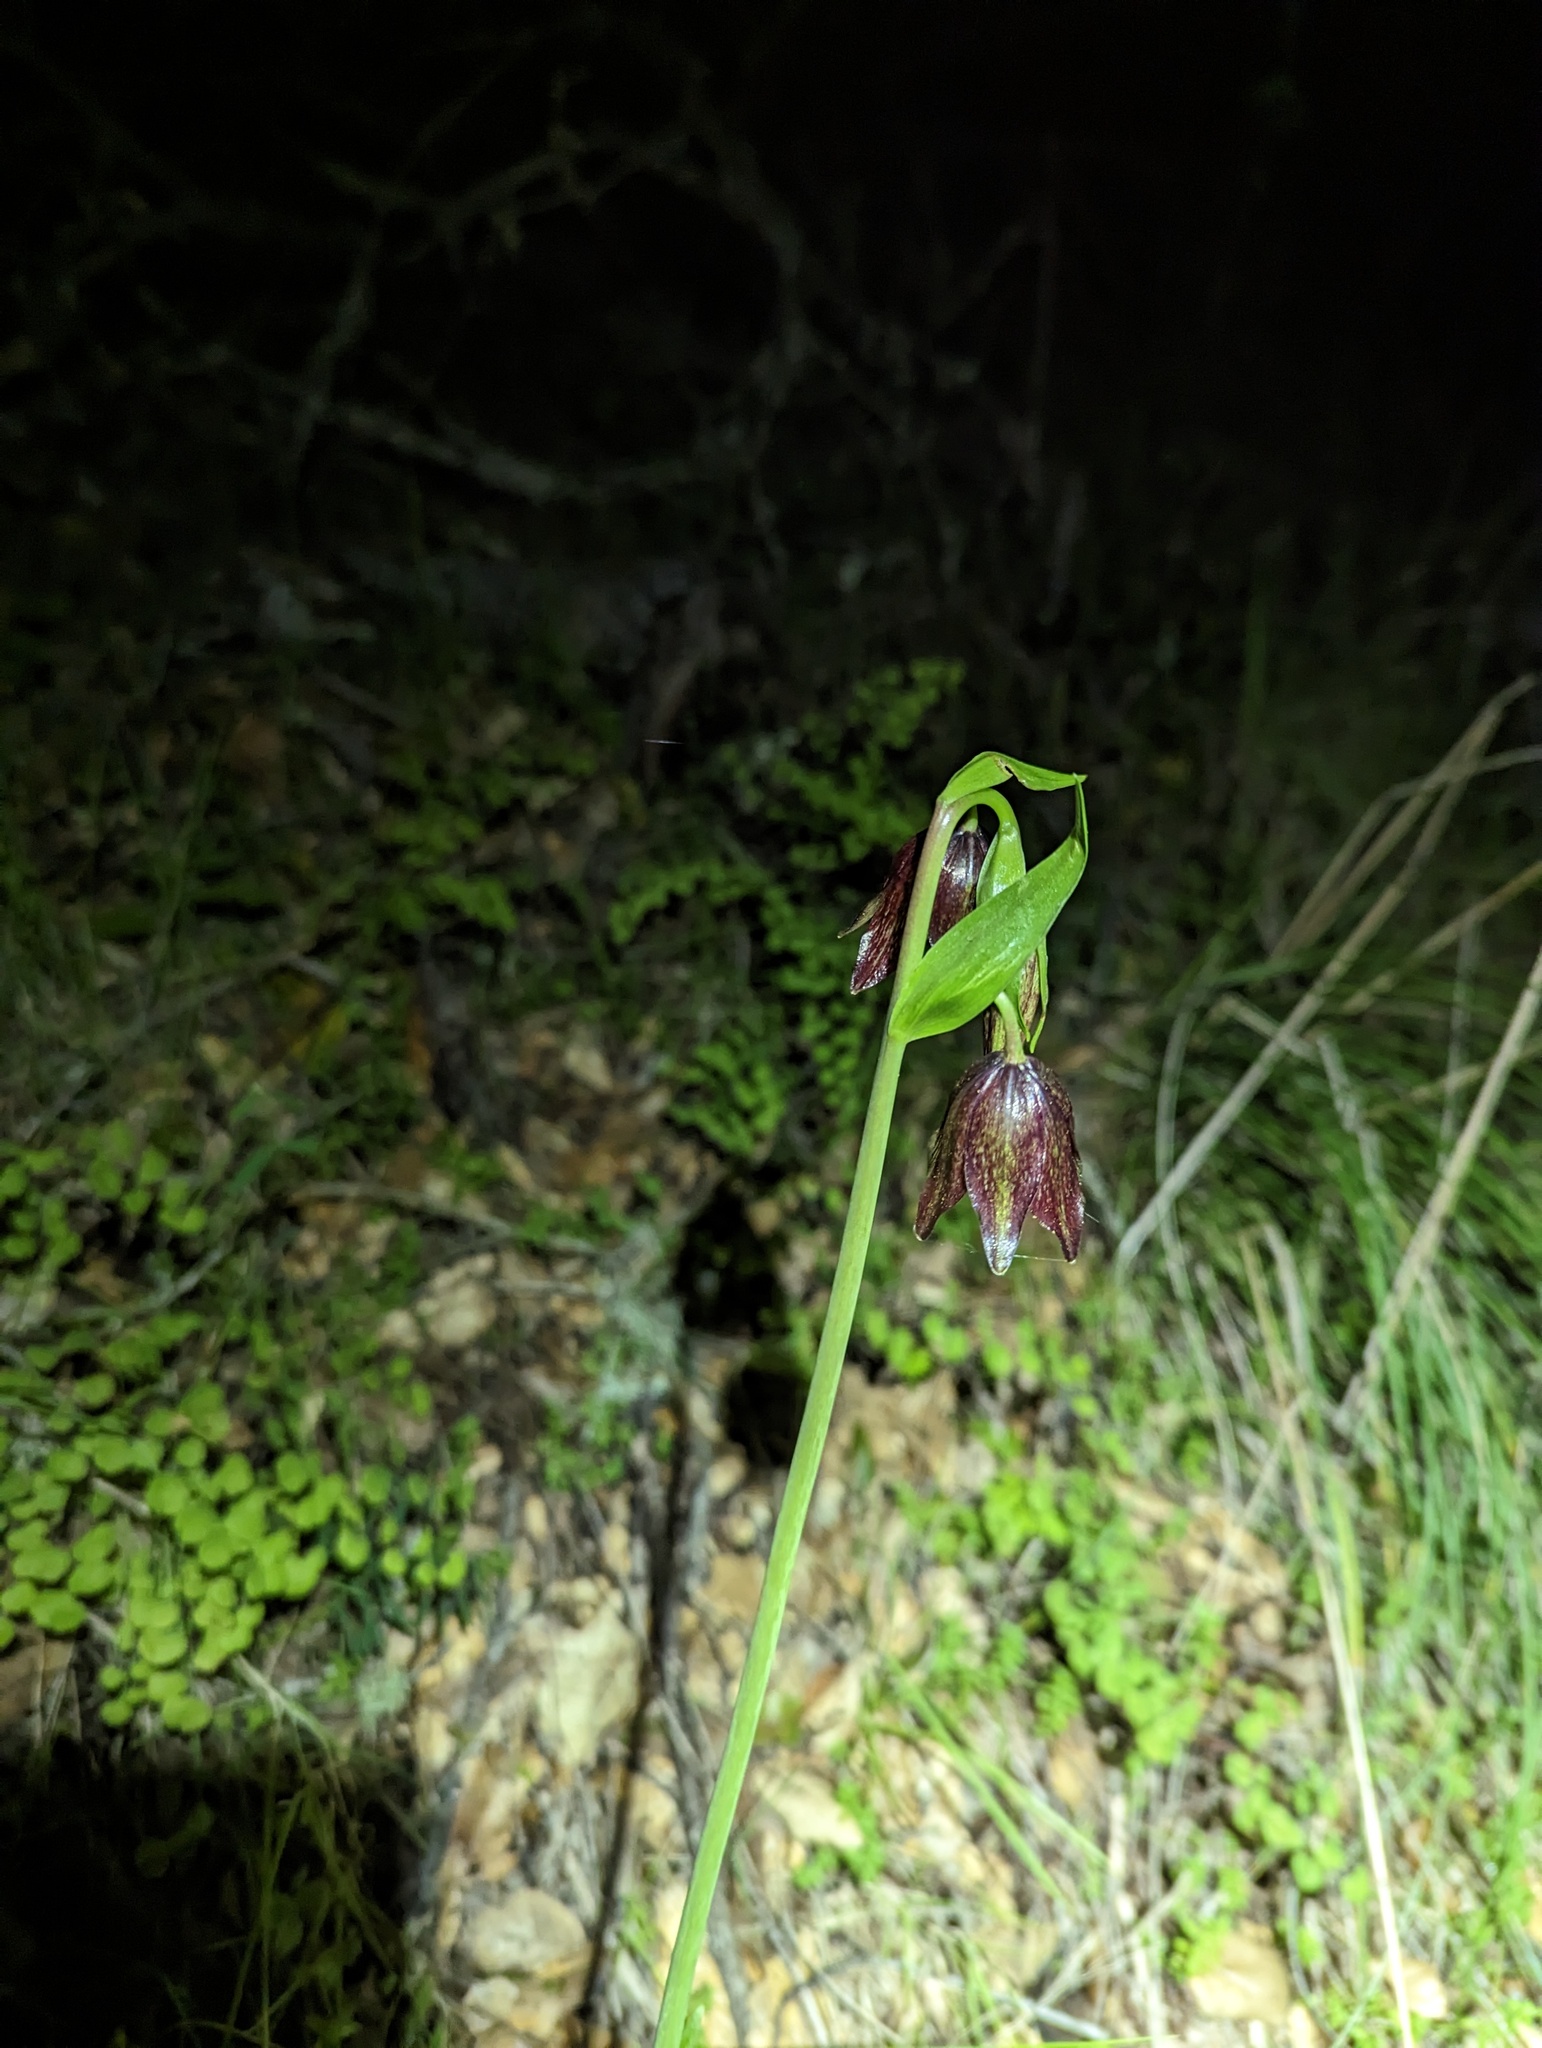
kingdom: Plantae
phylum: Tracheophyta
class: Liliopsida
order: Liliales
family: Liliaceae
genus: Fritillaria
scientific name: Fritillaria biflora
